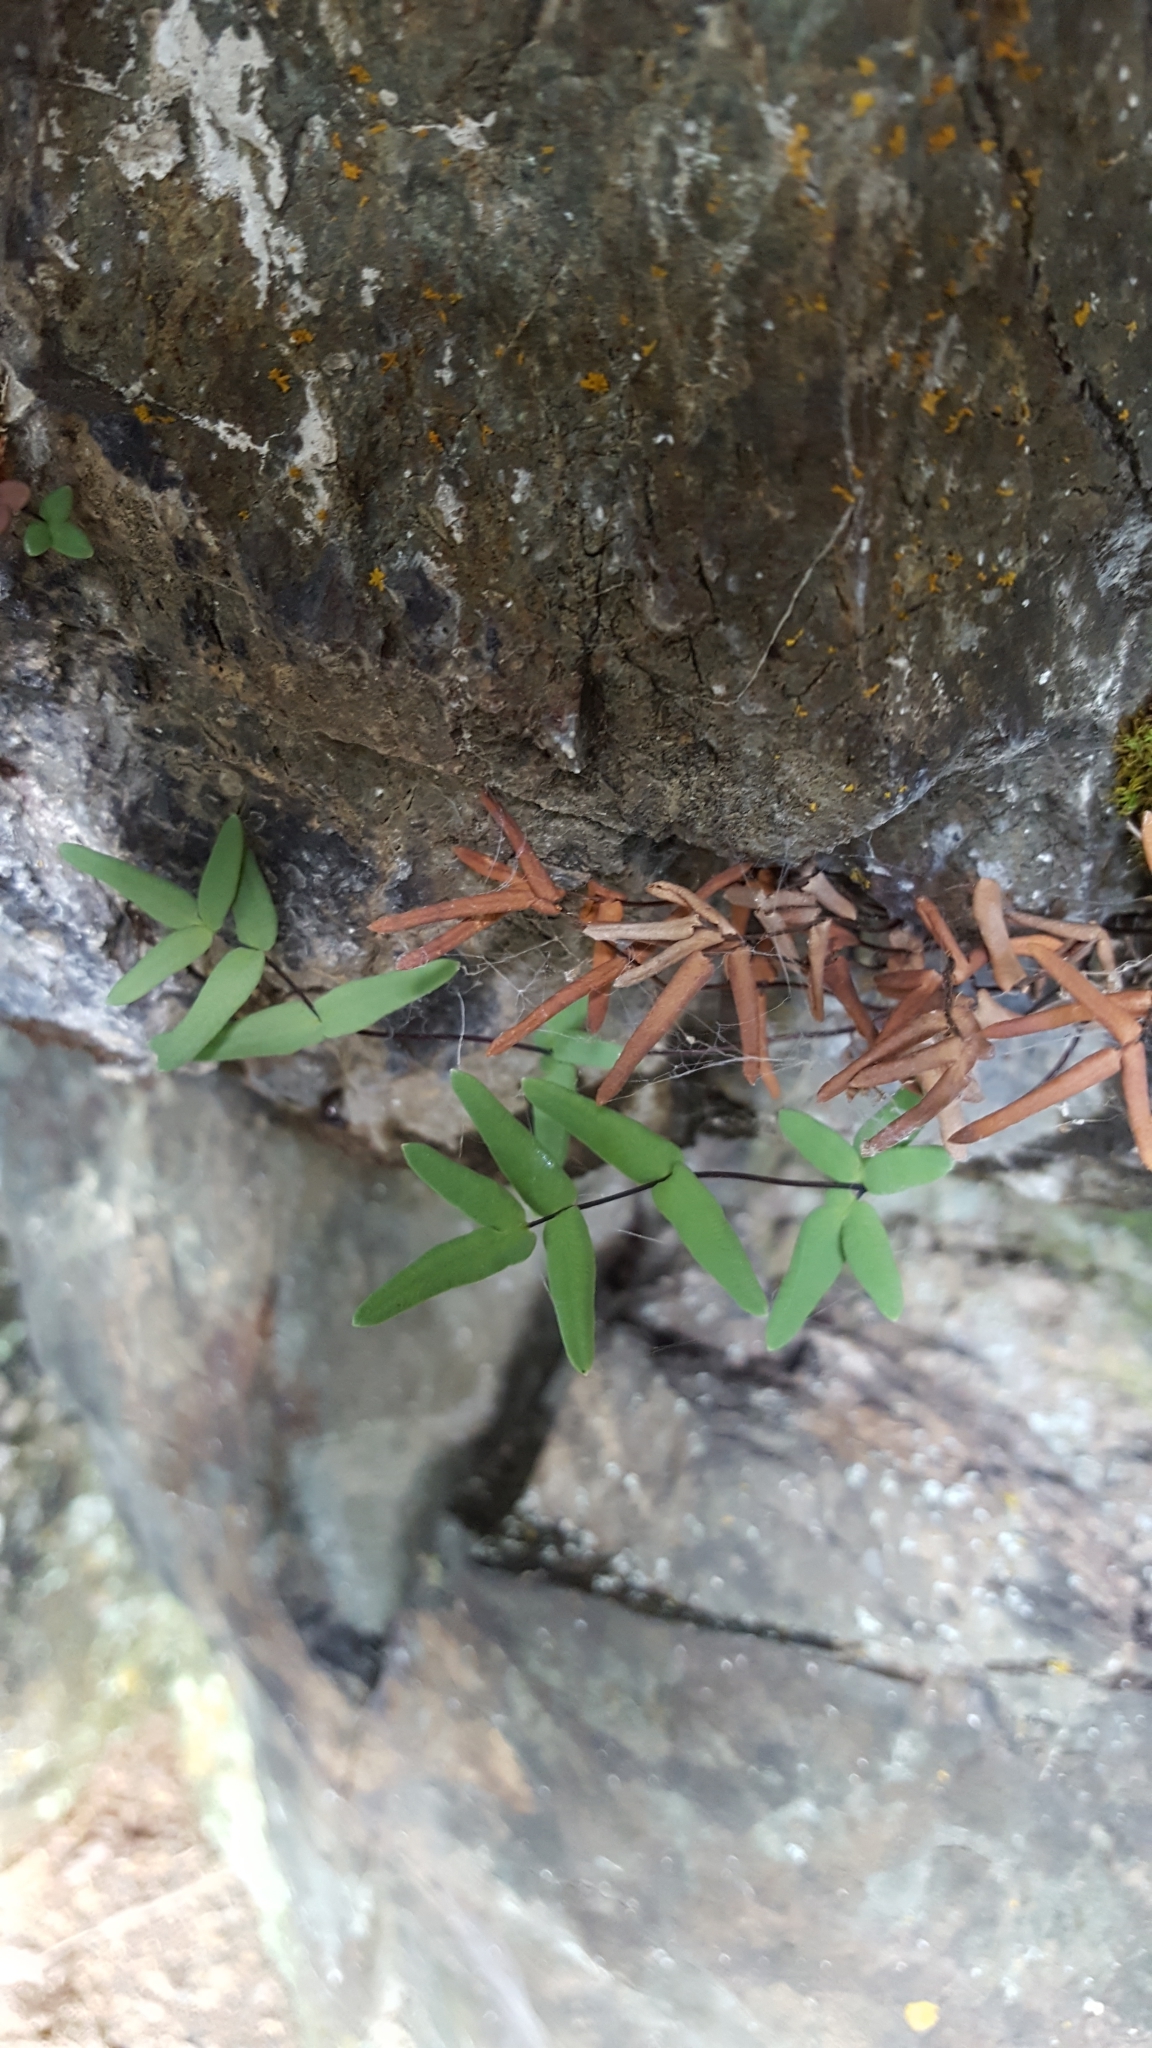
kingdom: Plantae
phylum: Tracheophyta
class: Polypodiopsida
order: Polypodiales
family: Pteridaceae
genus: Pellaea
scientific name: Pellaea glabella
